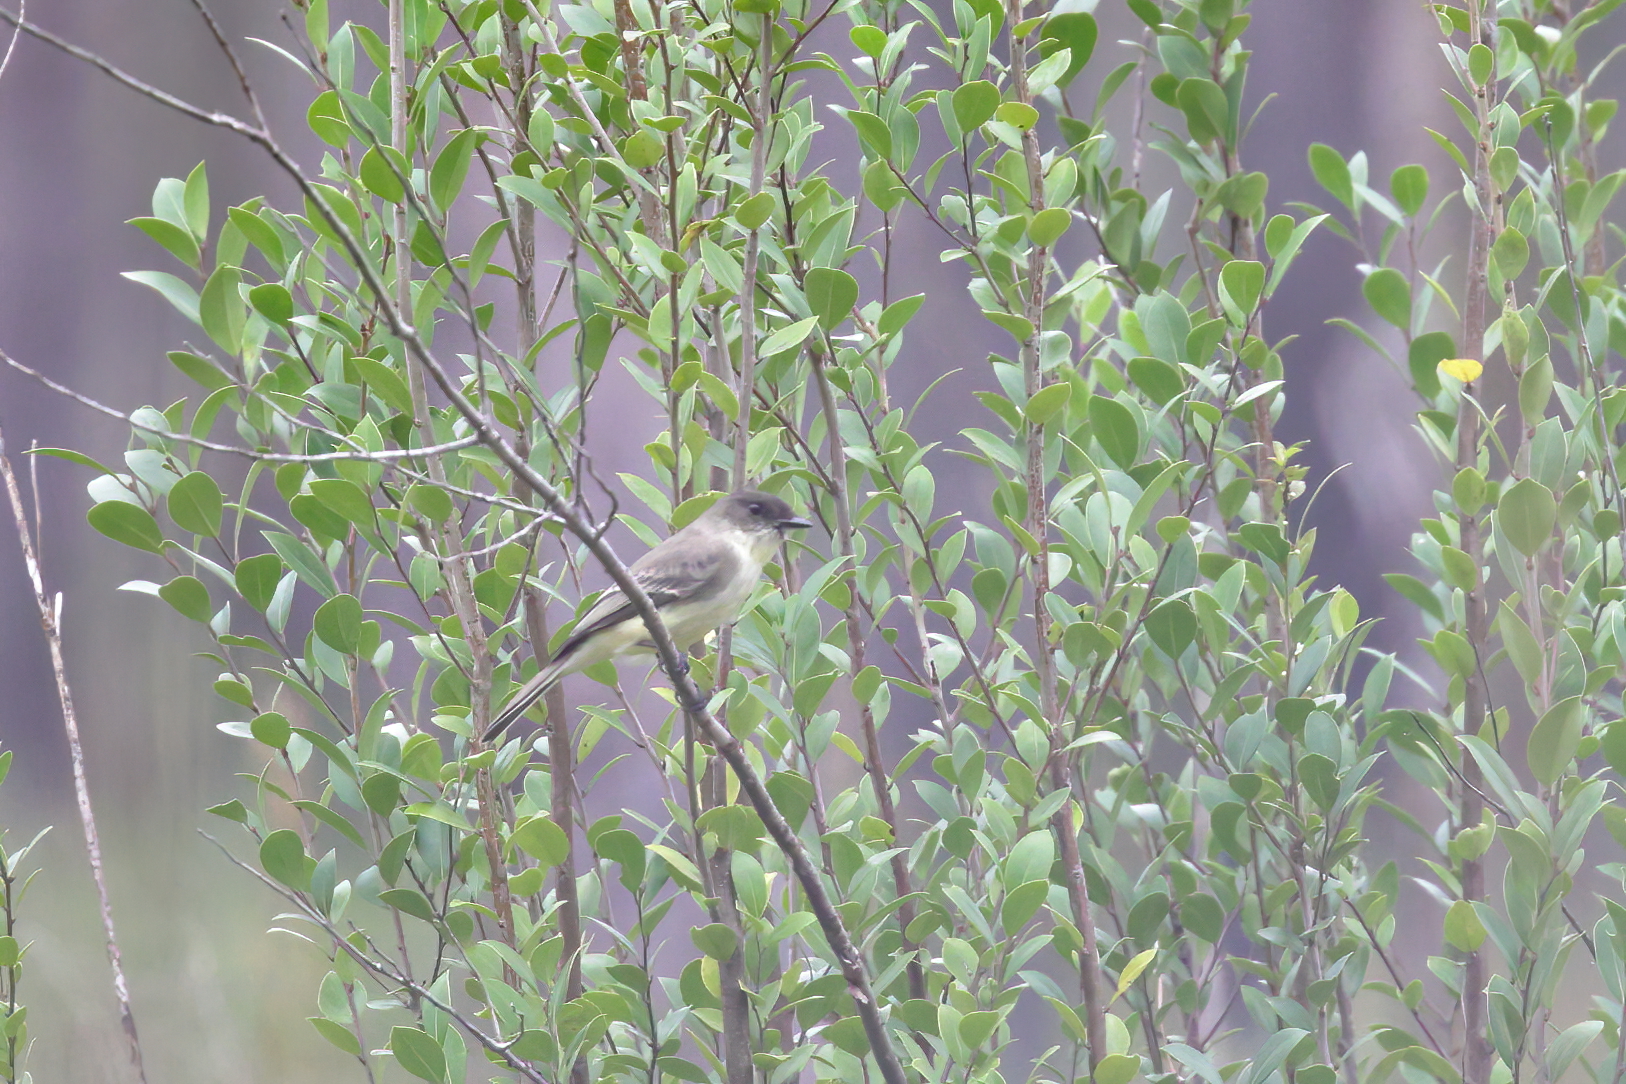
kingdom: Animalia
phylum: Chordata
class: Aves
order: Passeriformes
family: Tyrannidae
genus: Sayornis
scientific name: Sayornis phoebe
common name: Eastern phoebe
